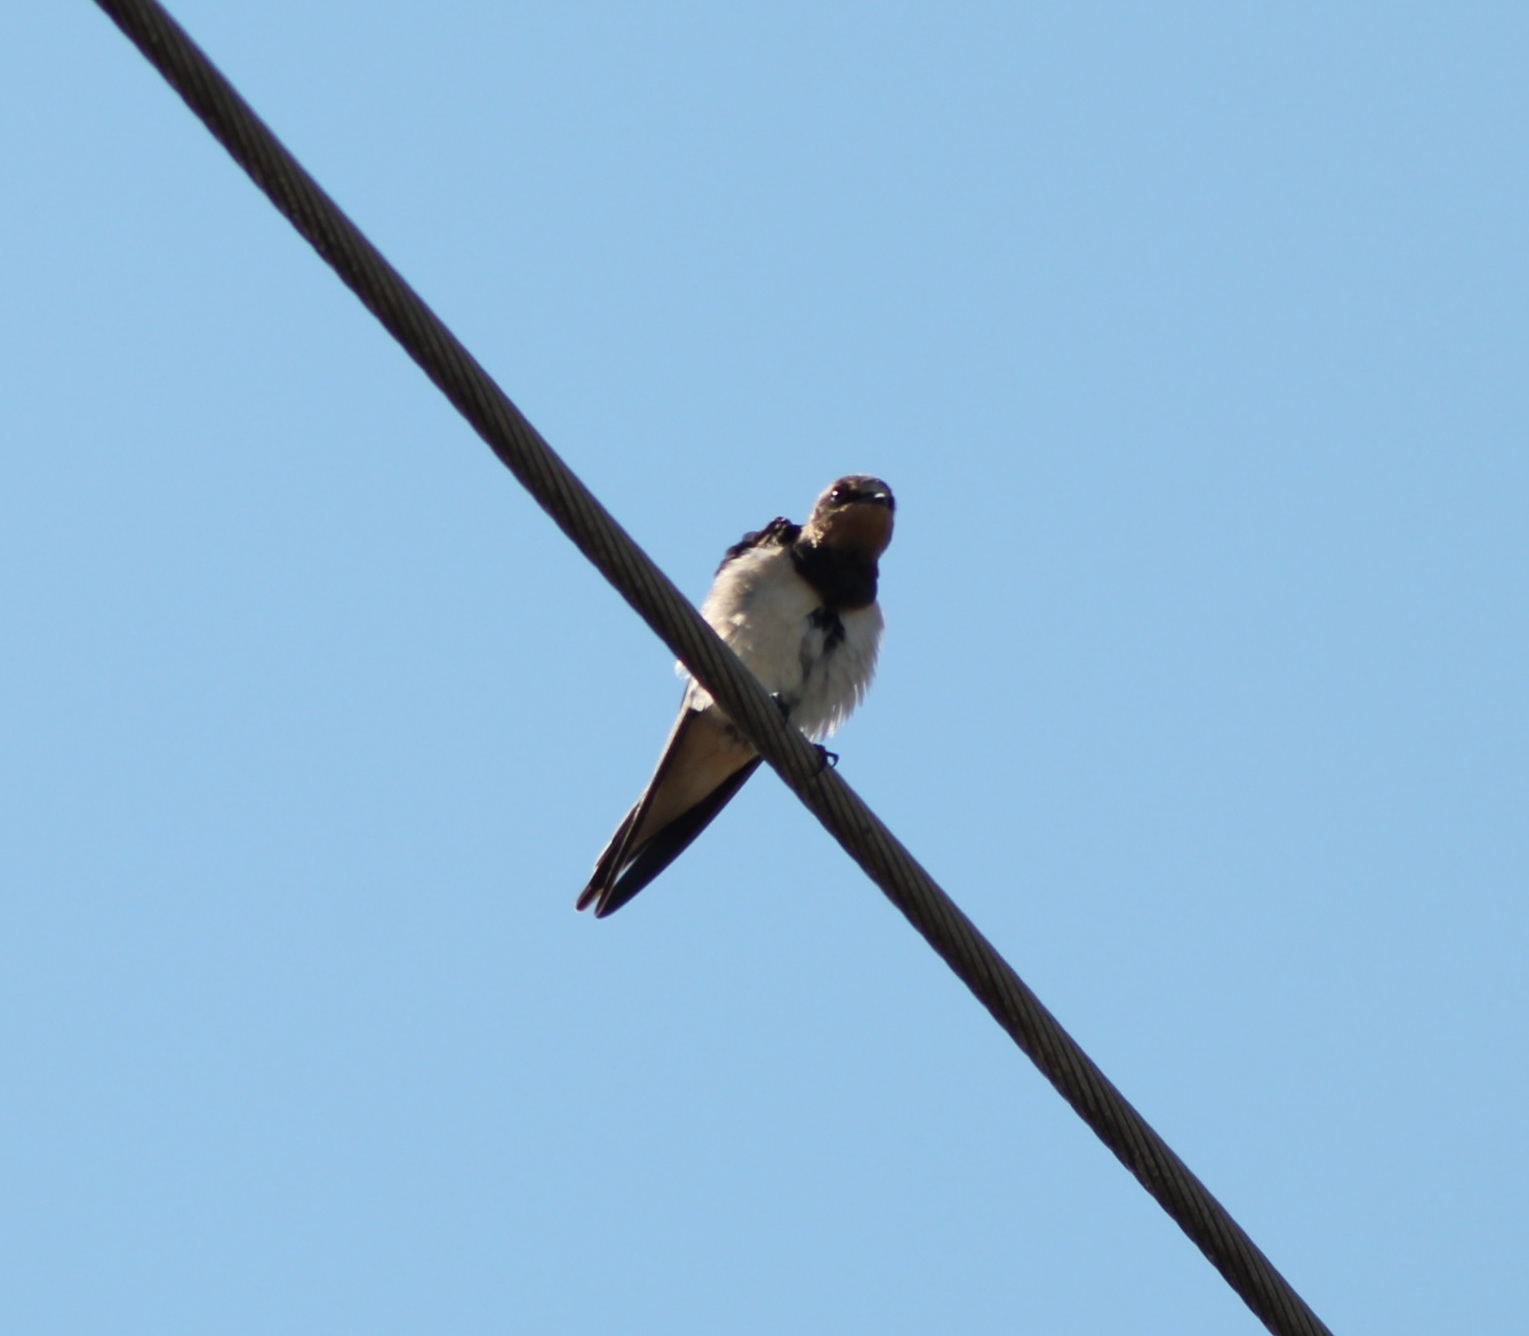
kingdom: Animalia
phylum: Chordata
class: Aves
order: Passeriformes
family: Hirundinidae
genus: Hirundo
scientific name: Hirundo rustica
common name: Barn swallow
